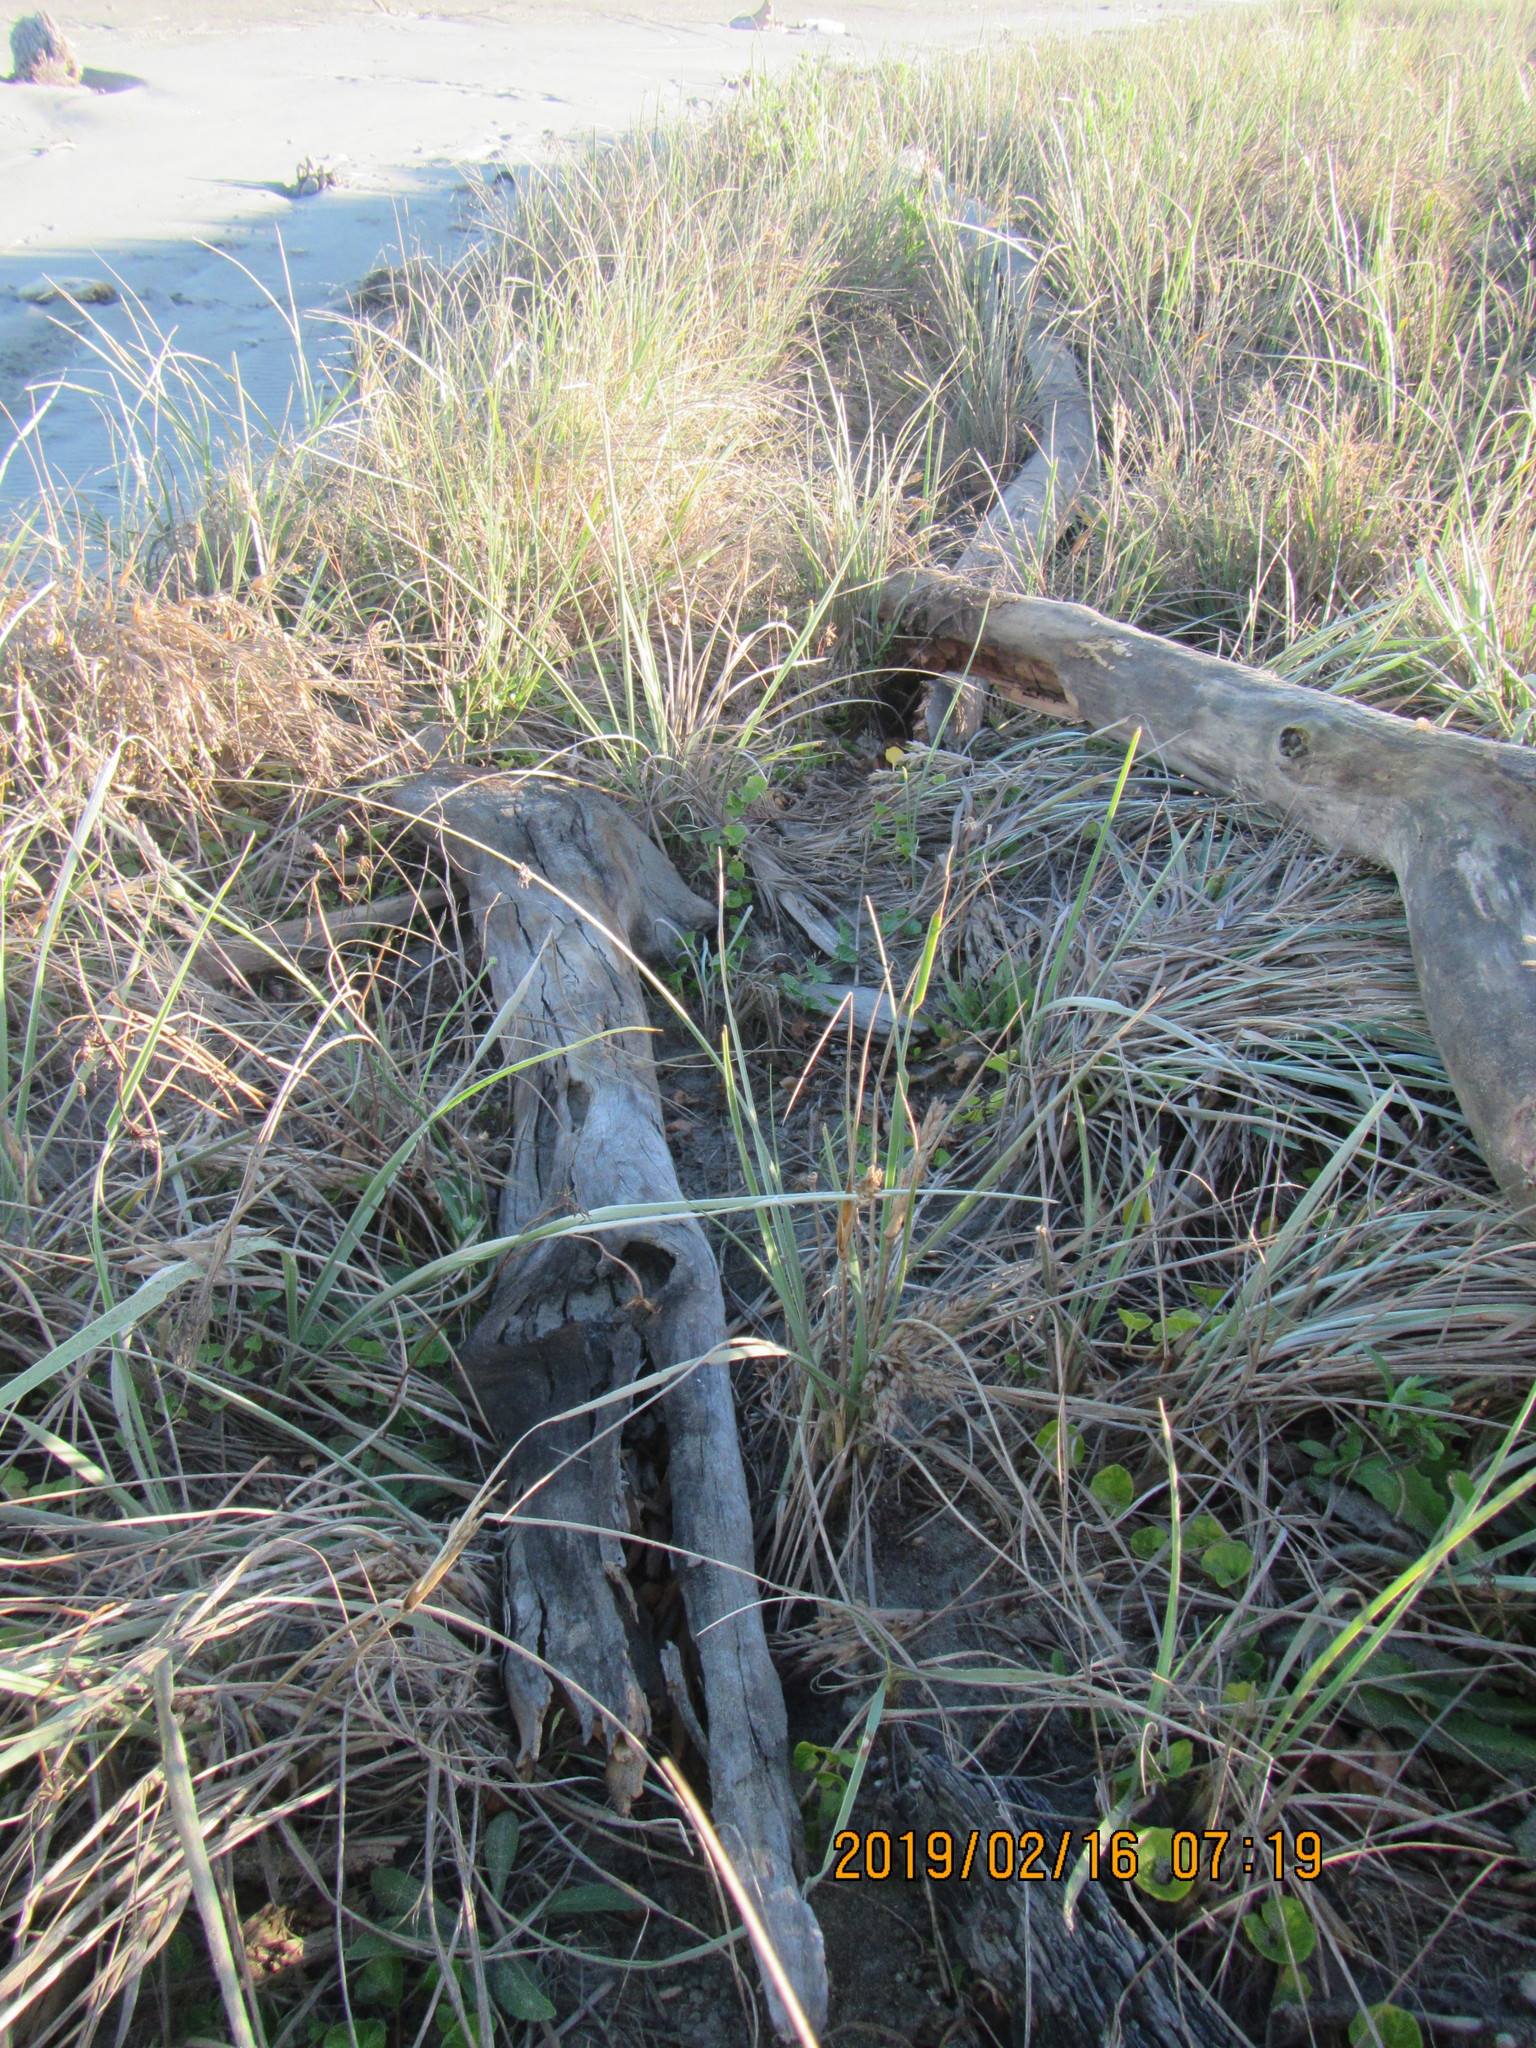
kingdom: Animalia
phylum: Arthropoda
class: Arachnida
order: Araneae
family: Theridiidae
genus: Steatoda
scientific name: Steatoda lepida
